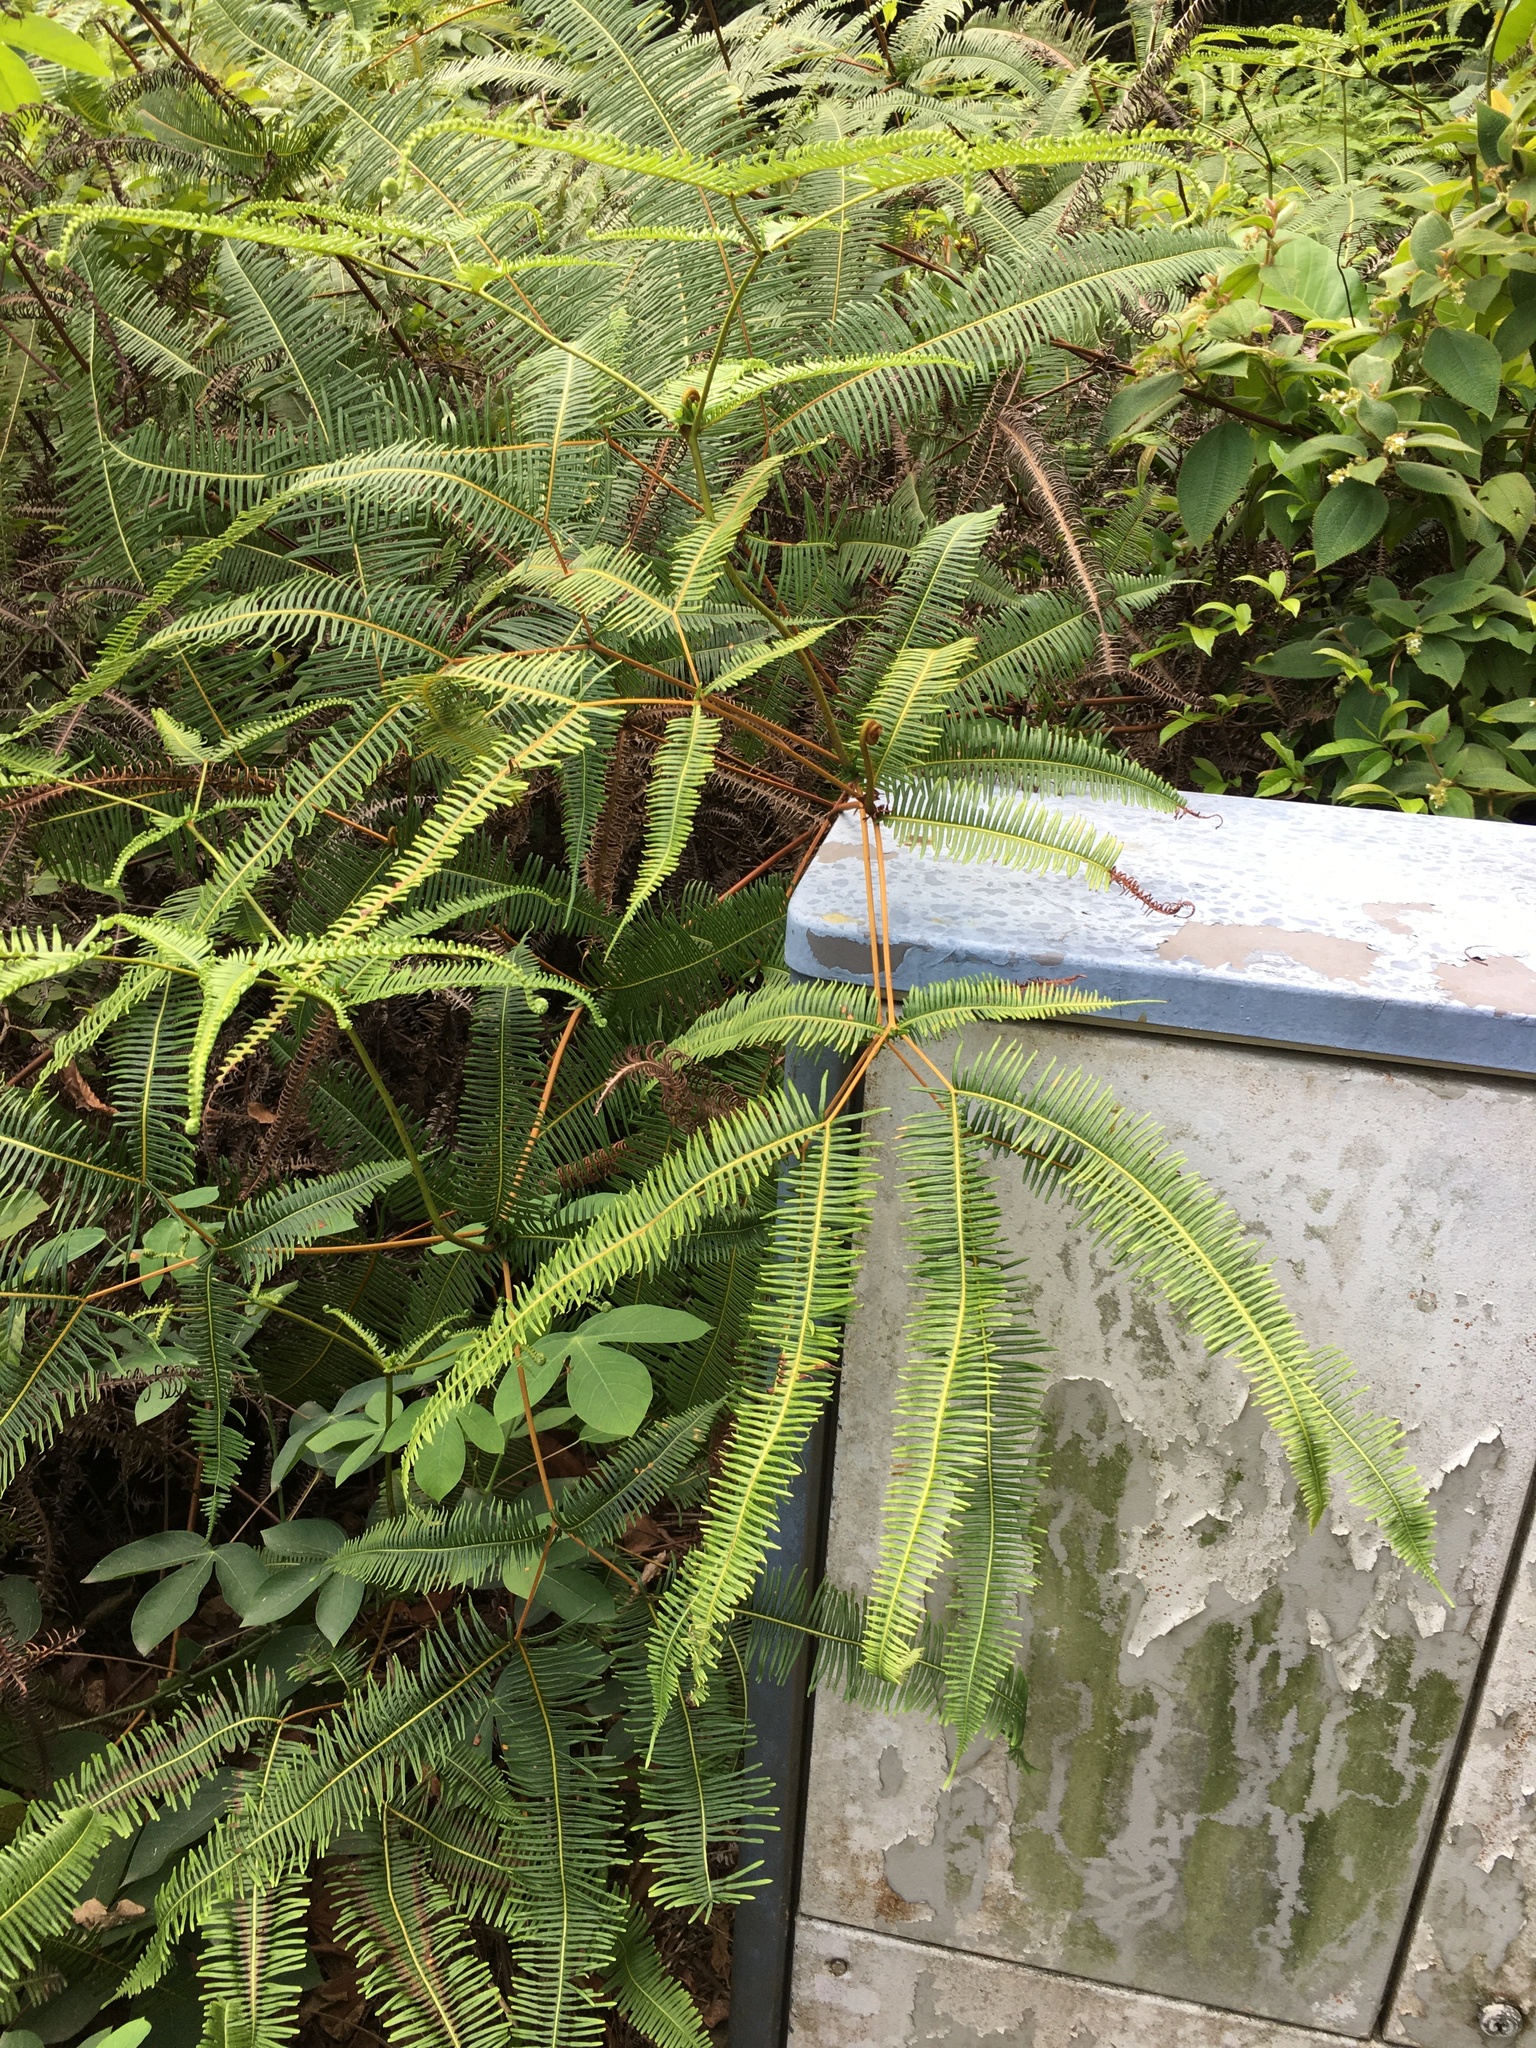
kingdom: Plantae
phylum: Tracheophyta
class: Polypodiopsida
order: Gleicheniales
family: Gleicheniaceae
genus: Dicranopteris
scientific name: Dicranopteris linearis
